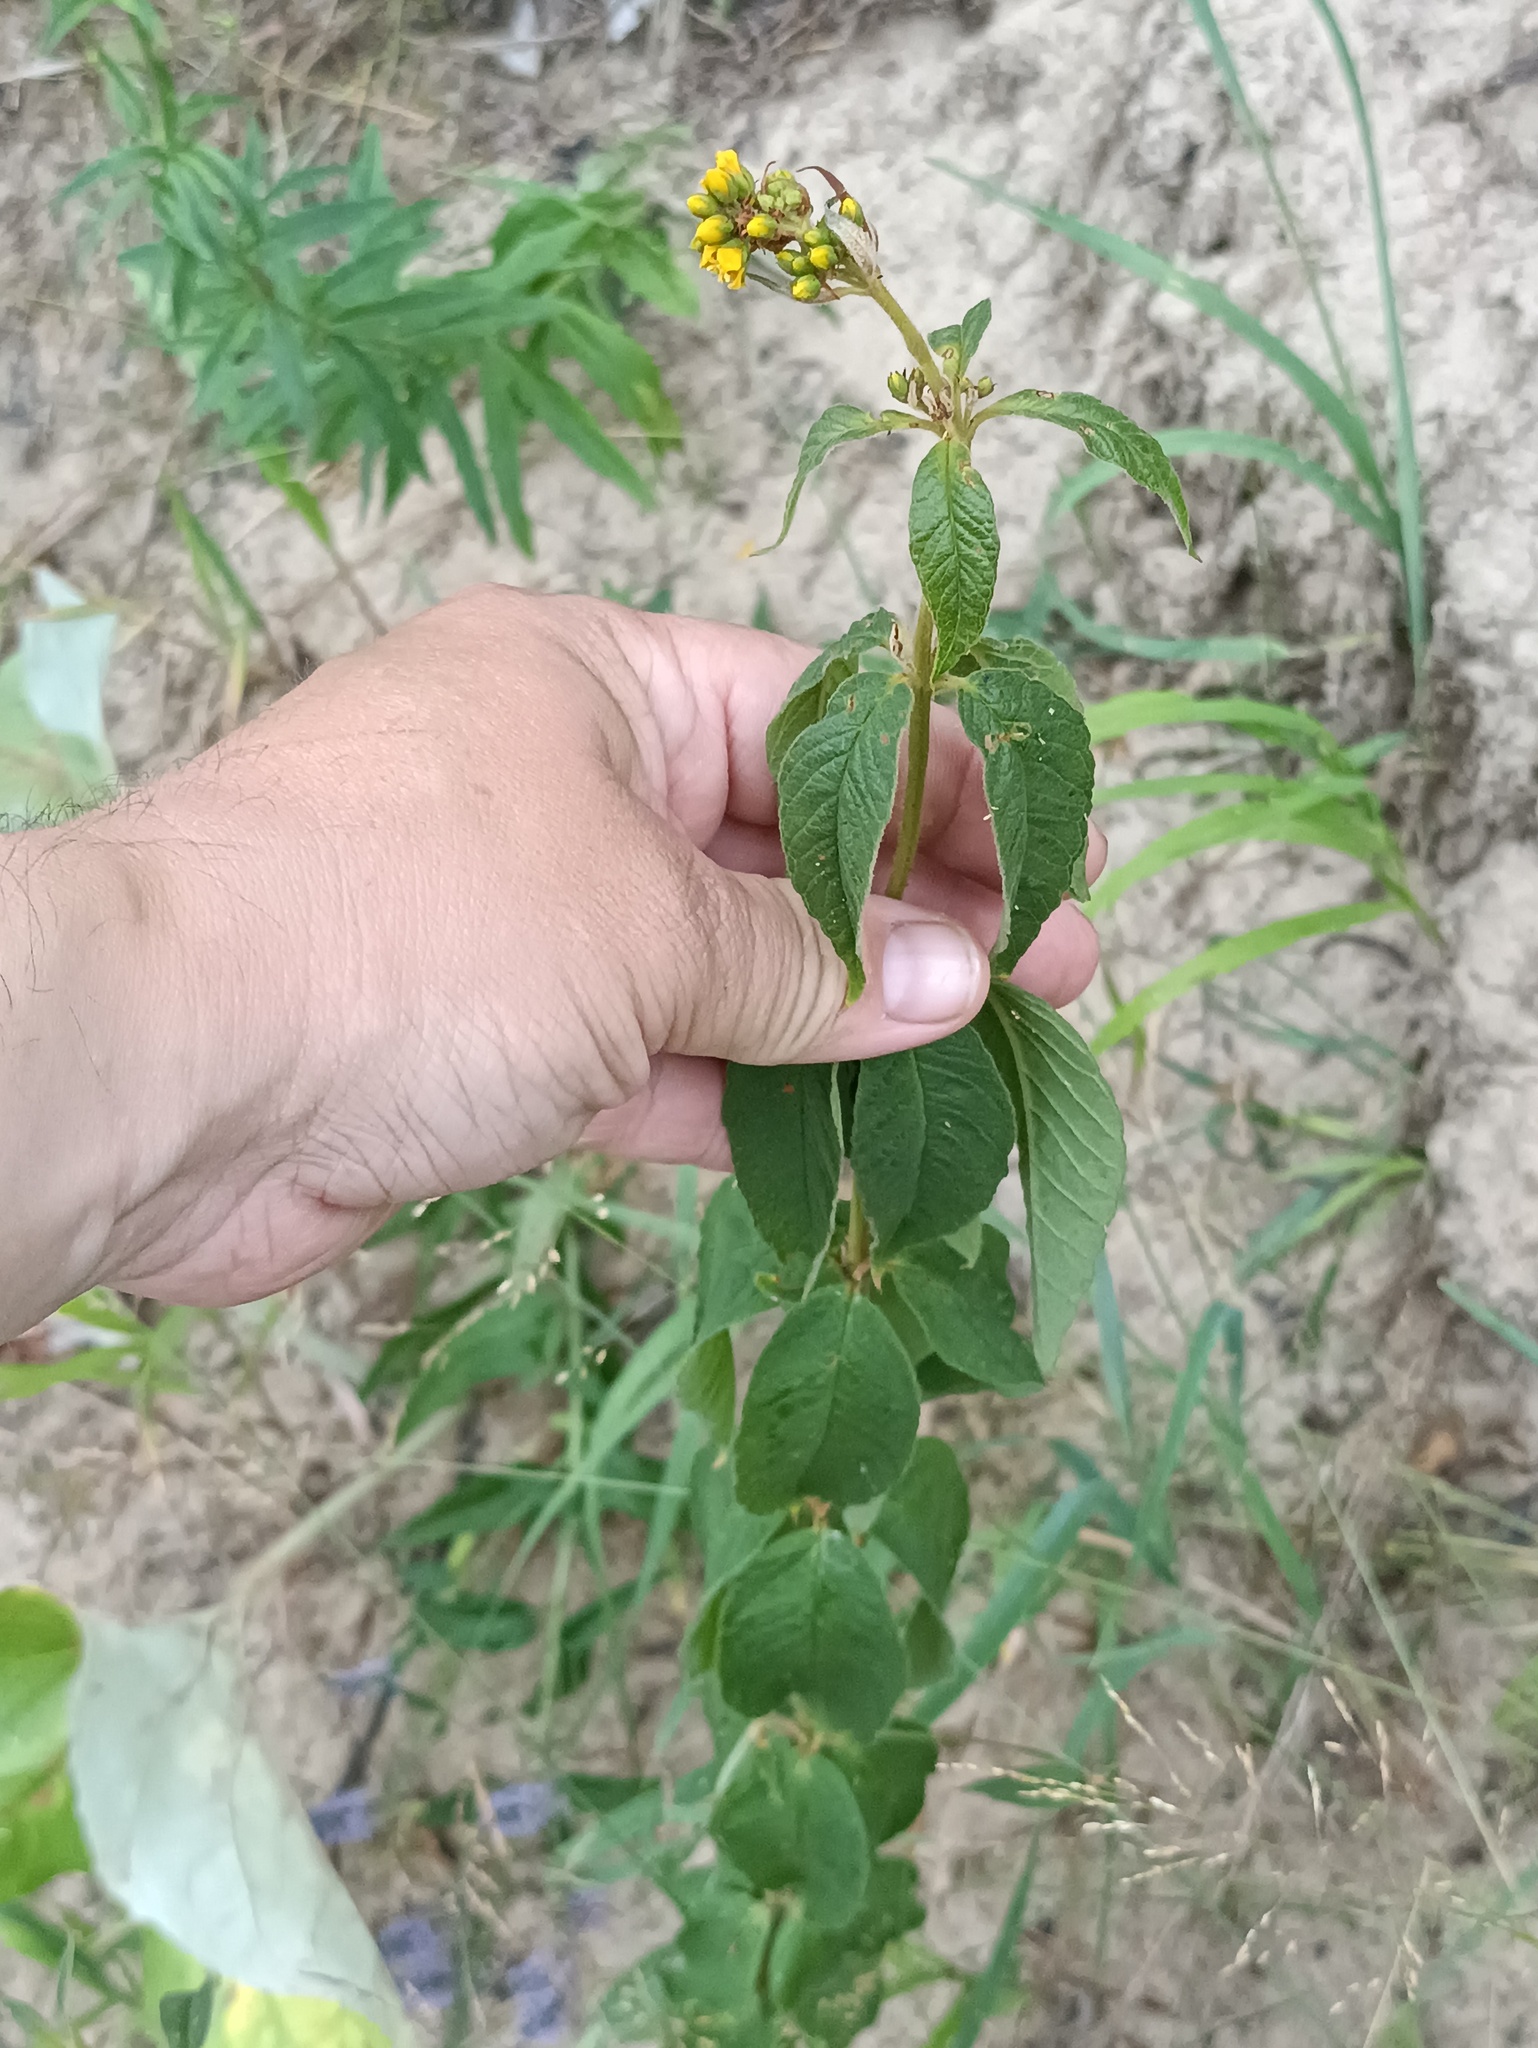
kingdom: Plantae
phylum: Tracheophyta
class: Magnoliopsida
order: Ericales
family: Primulaceae
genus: Lysimachia
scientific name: Lysimachia vulgaris
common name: Yellow loosestrife
